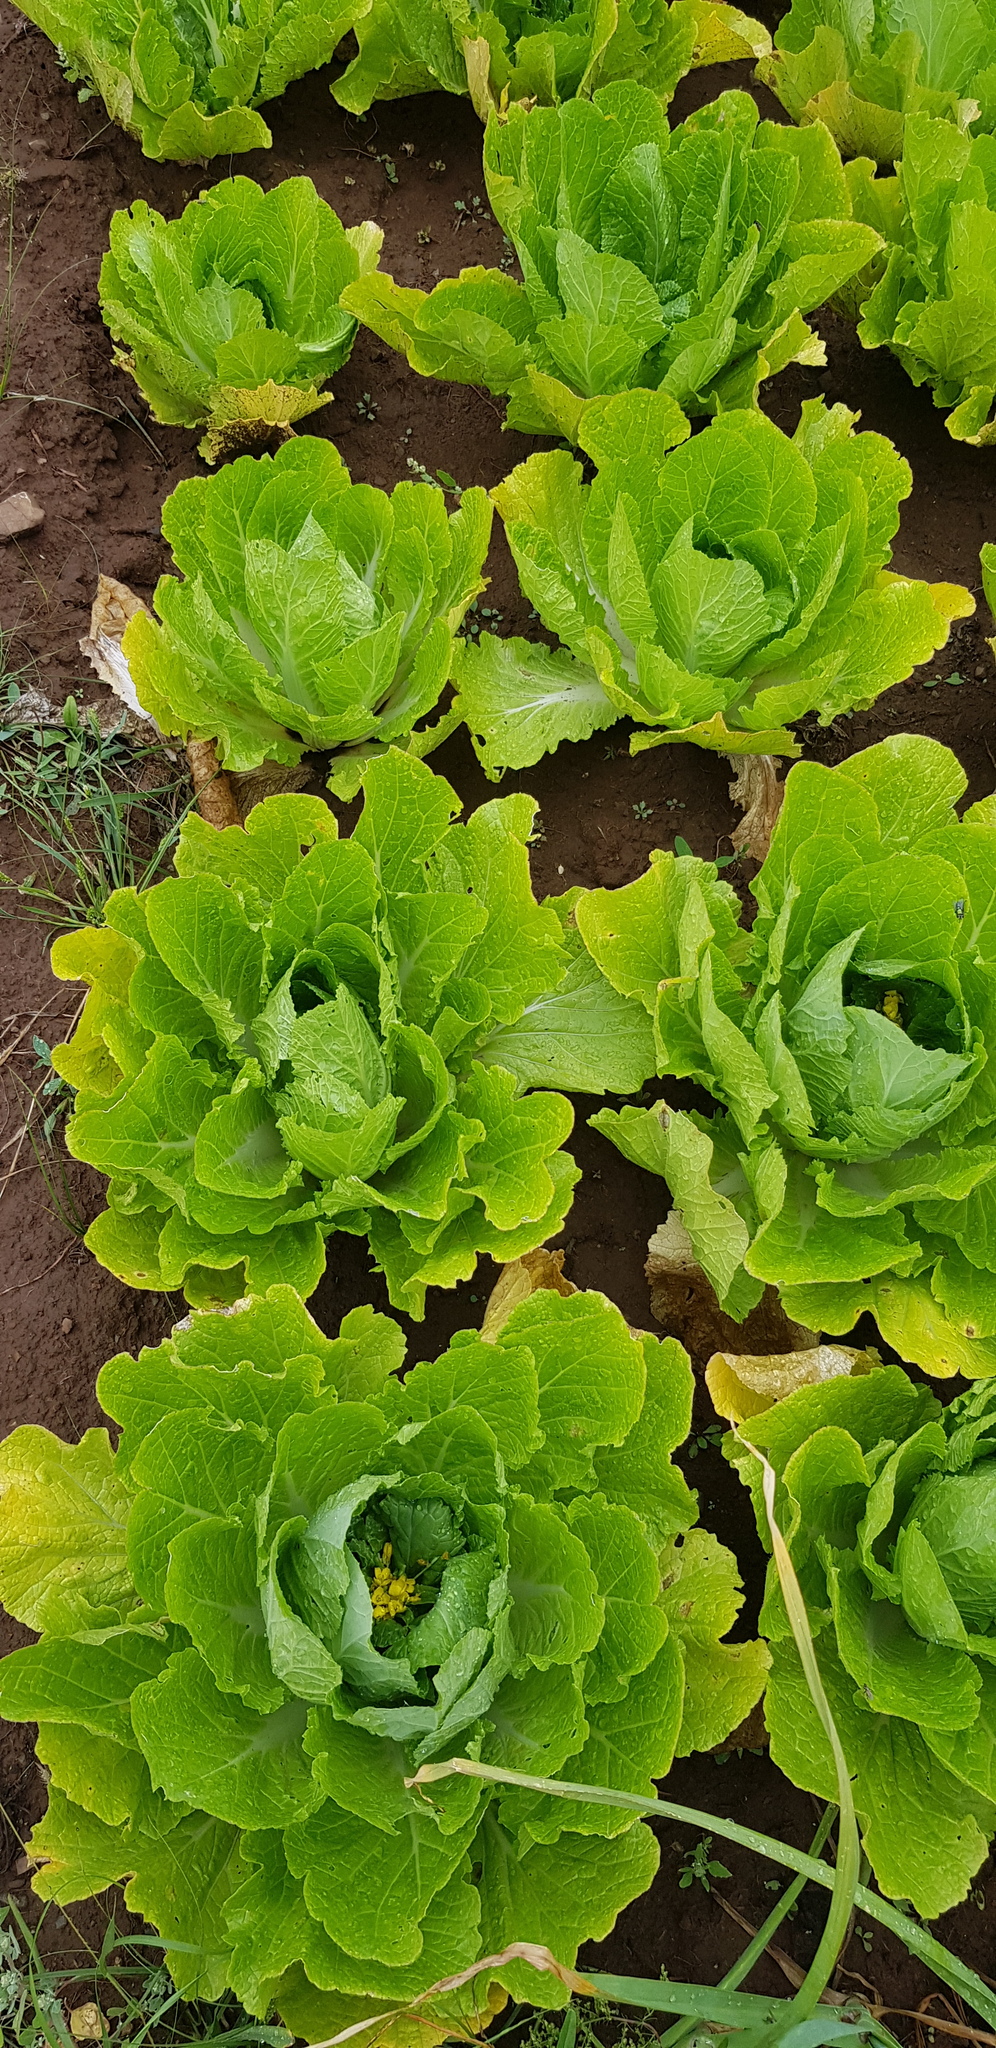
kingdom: Plantae
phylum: Tracheophyta
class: Magnoliopsida
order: Brassicales
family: Brassicaceae
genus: Brassica
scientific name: Brassica oleracea
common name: Cabbage
